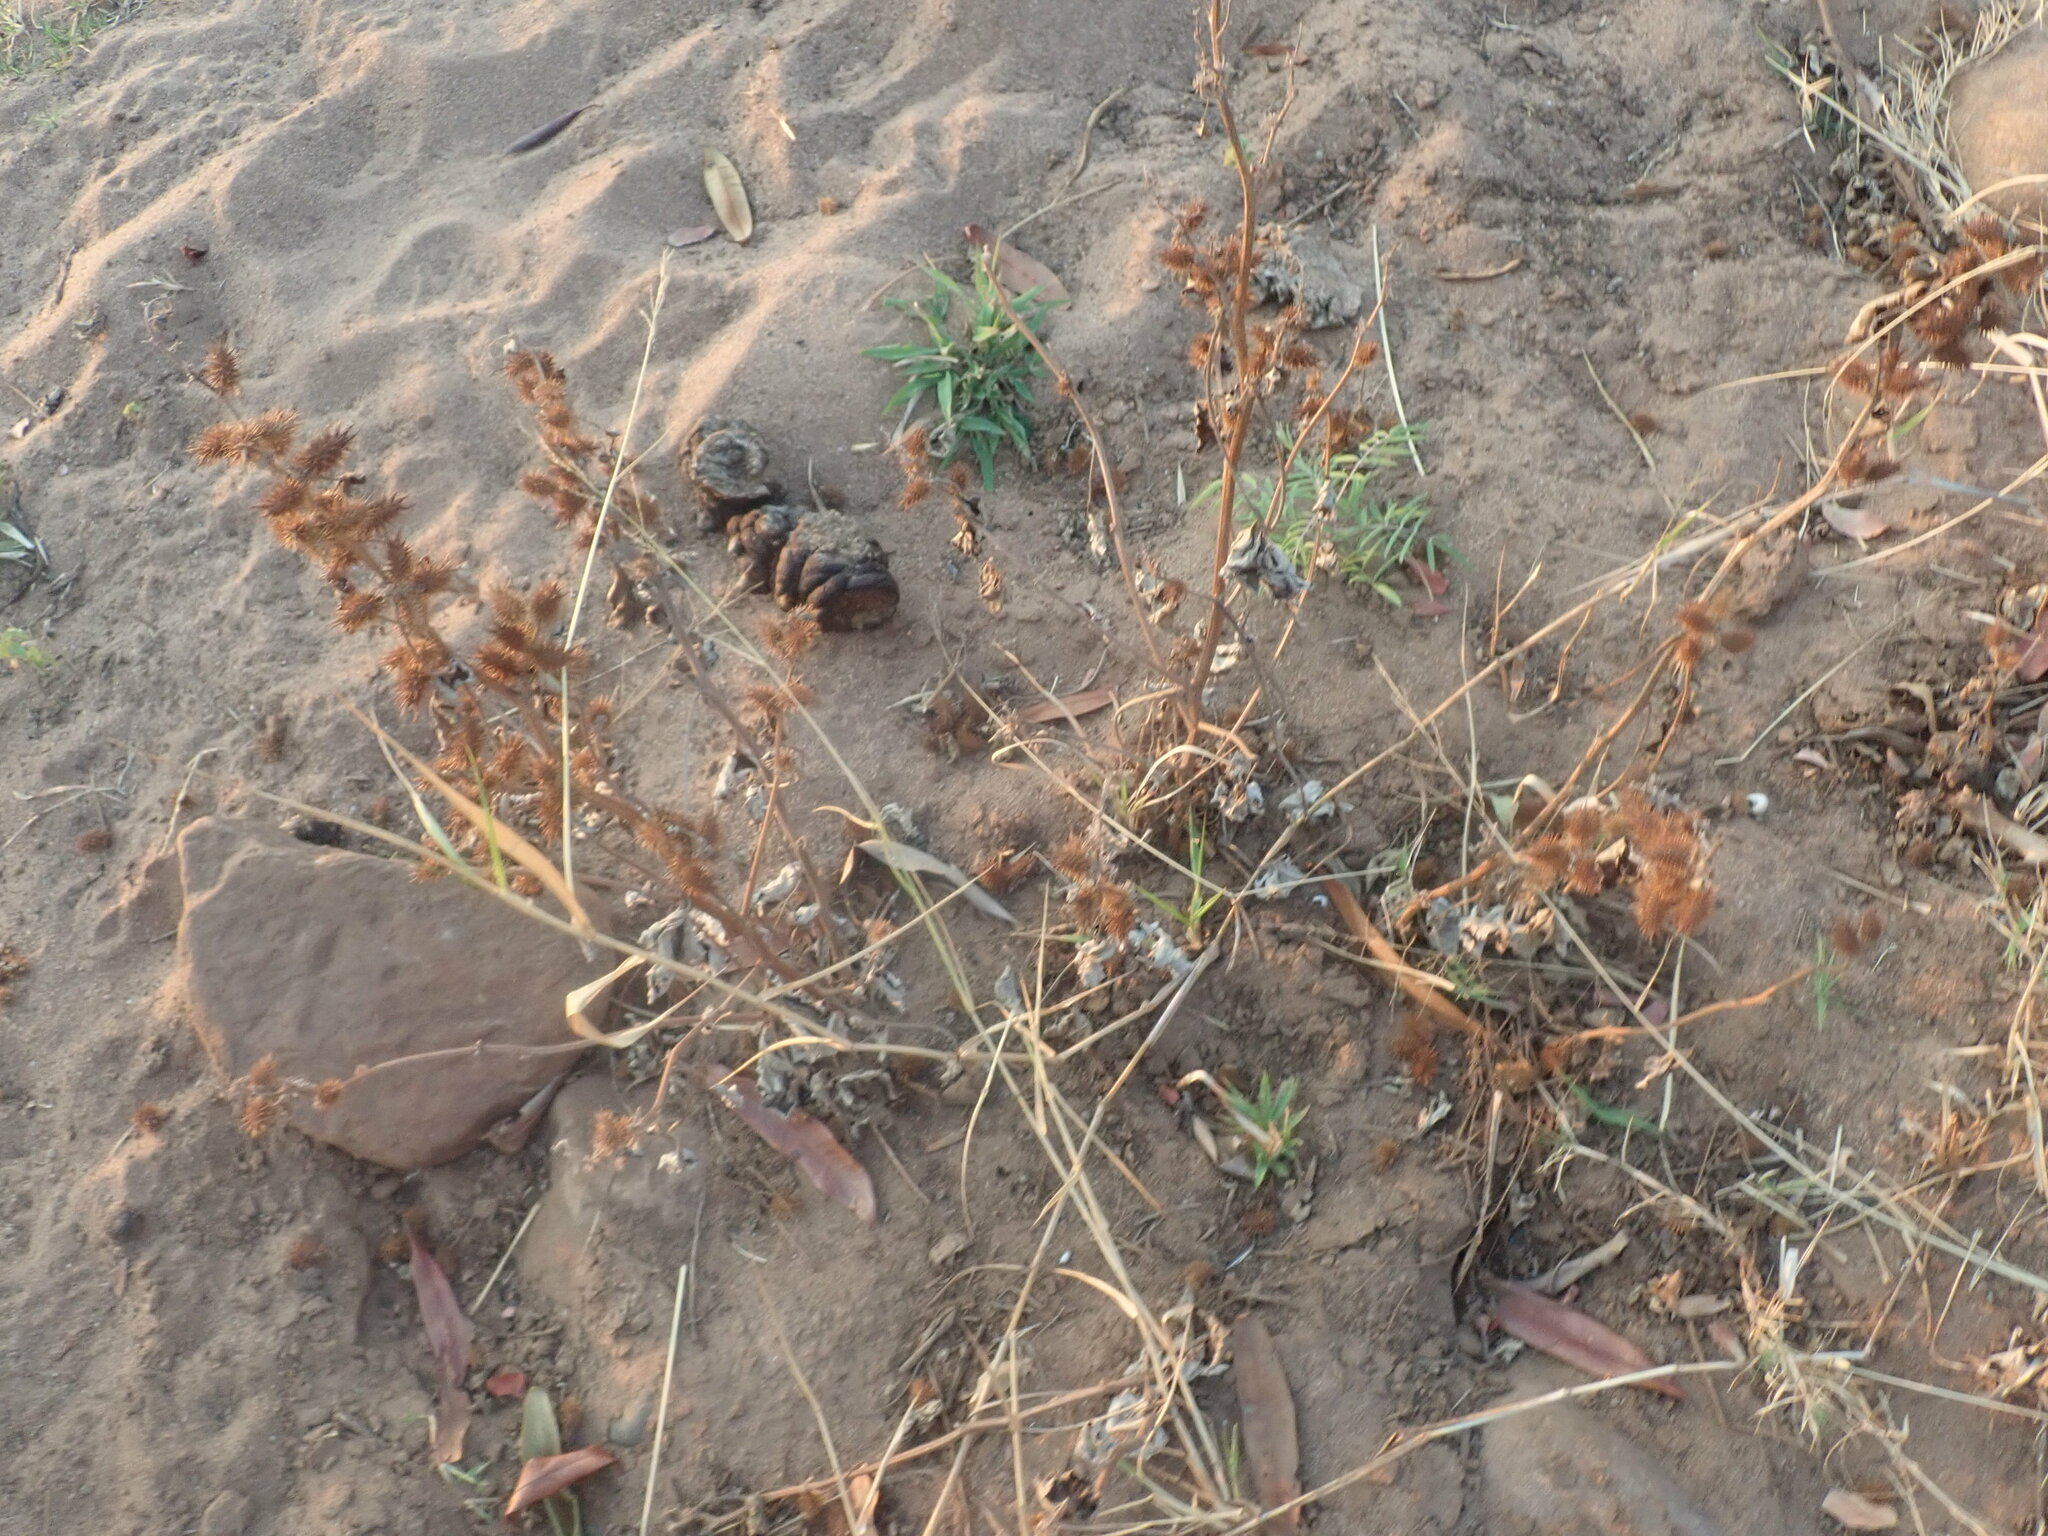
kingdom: Plantae
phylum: Tracheophyta
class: Magnoliopsida
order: Asterales
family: Asteraceae
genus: Xanthium
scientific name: Xanthium strumarium
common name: Rough cocklebur
